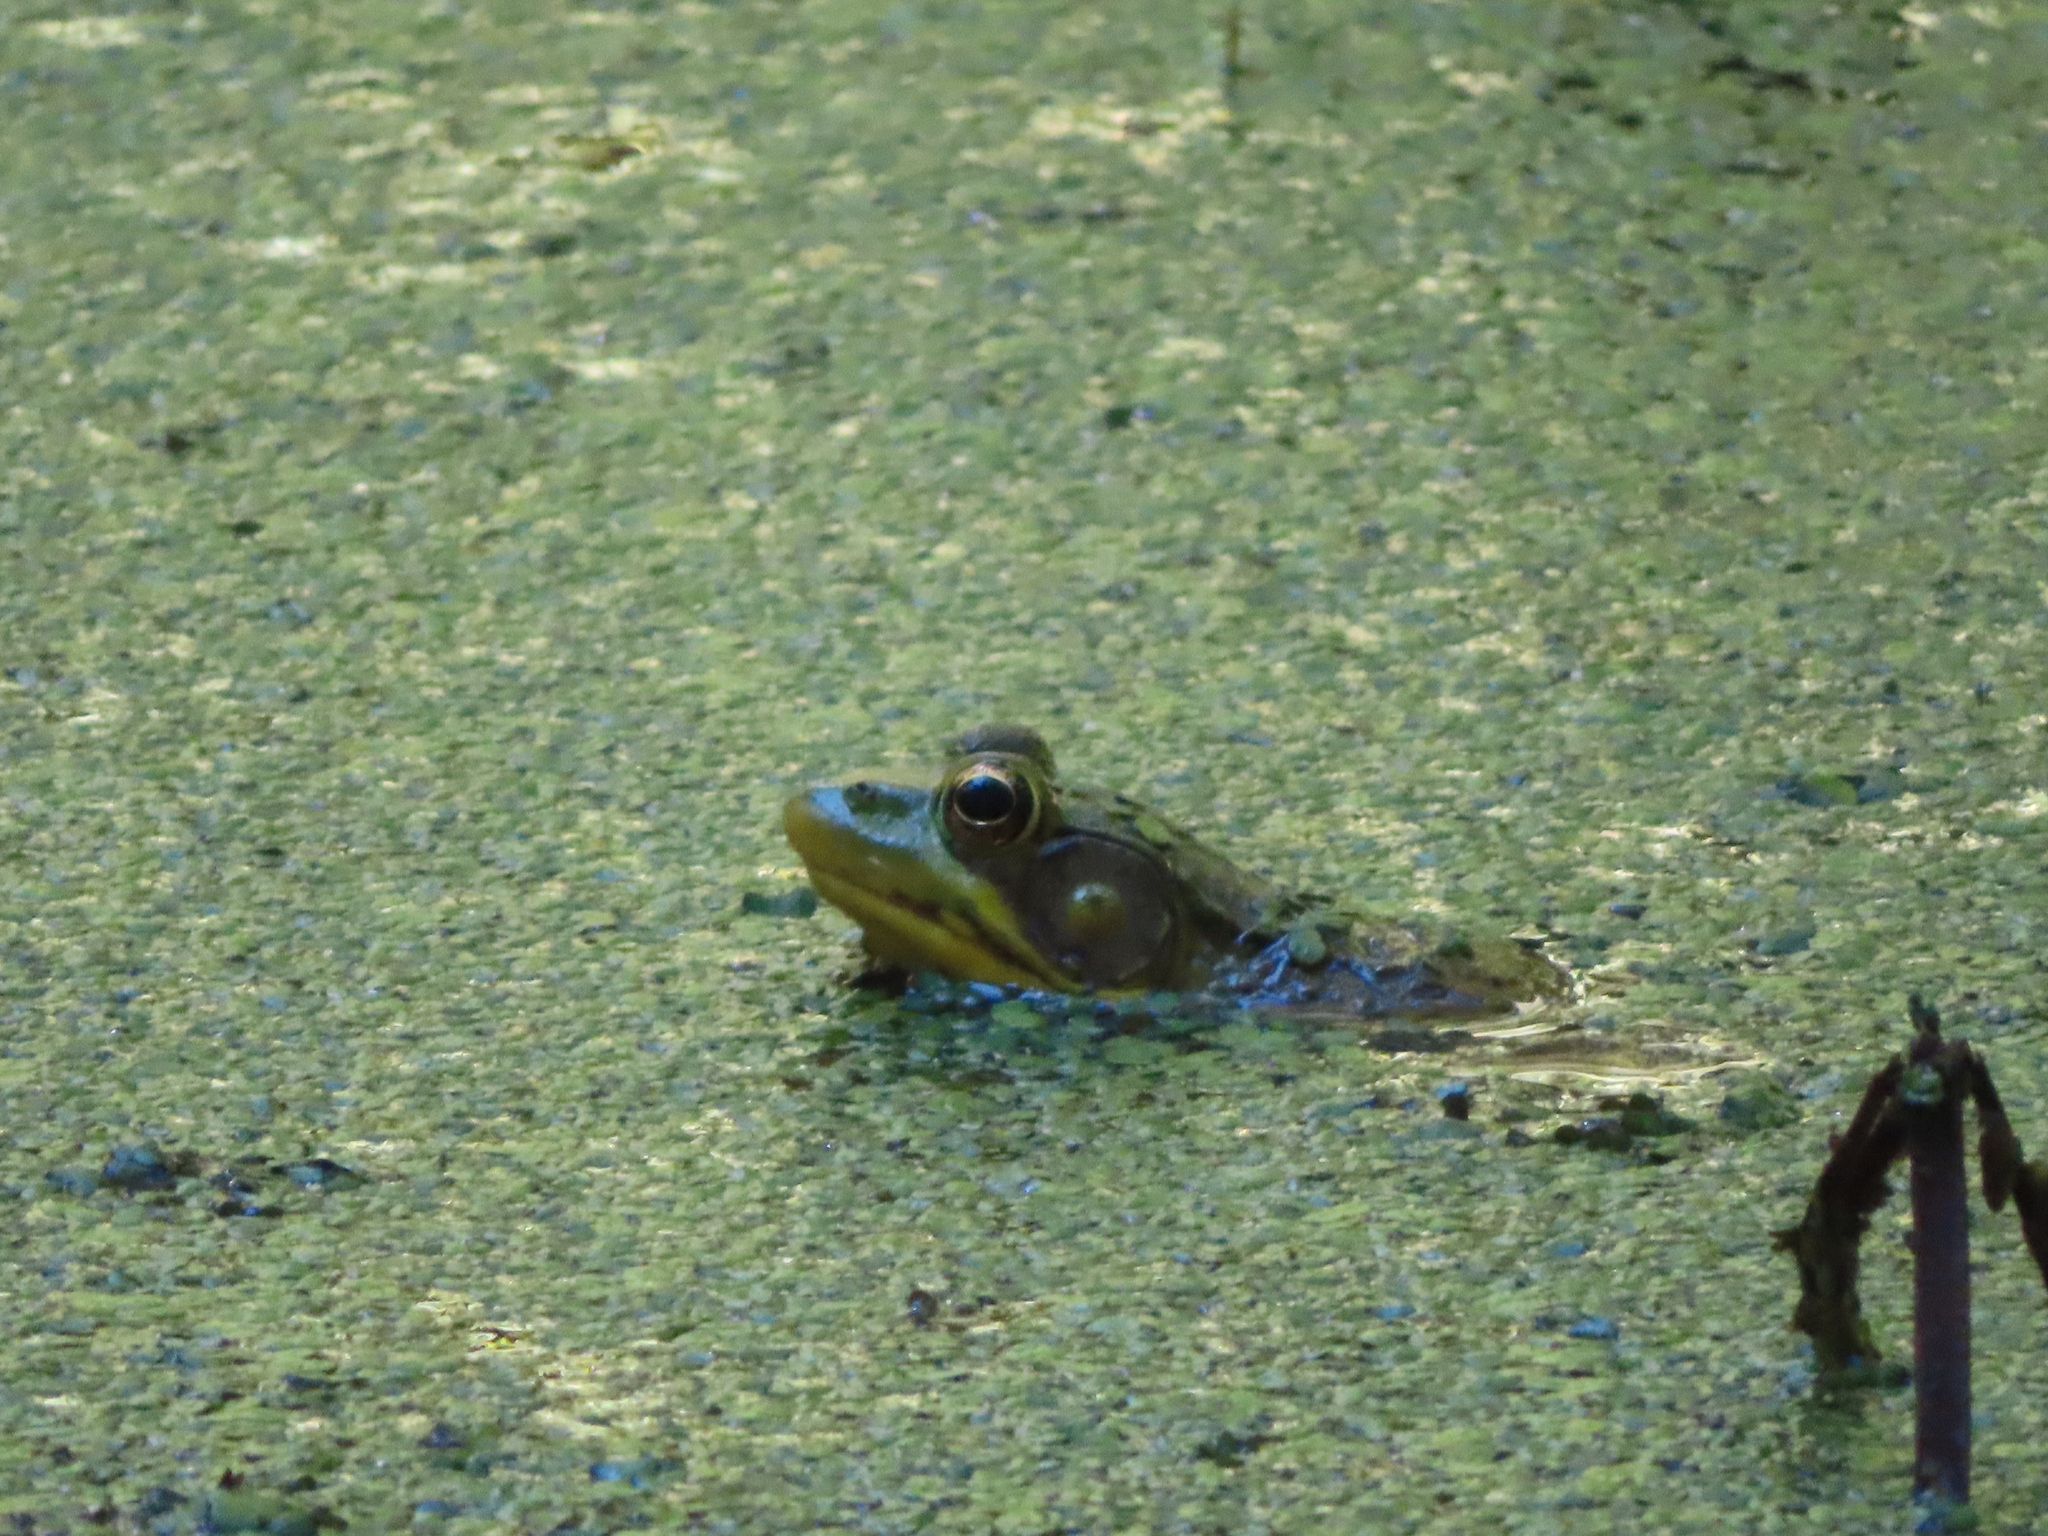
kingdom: Animalia
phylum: Chordata
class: Amphibia
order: Anura
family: Ranidae
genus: Lithobates
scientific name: Lithobates clamitans
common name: Green frog
